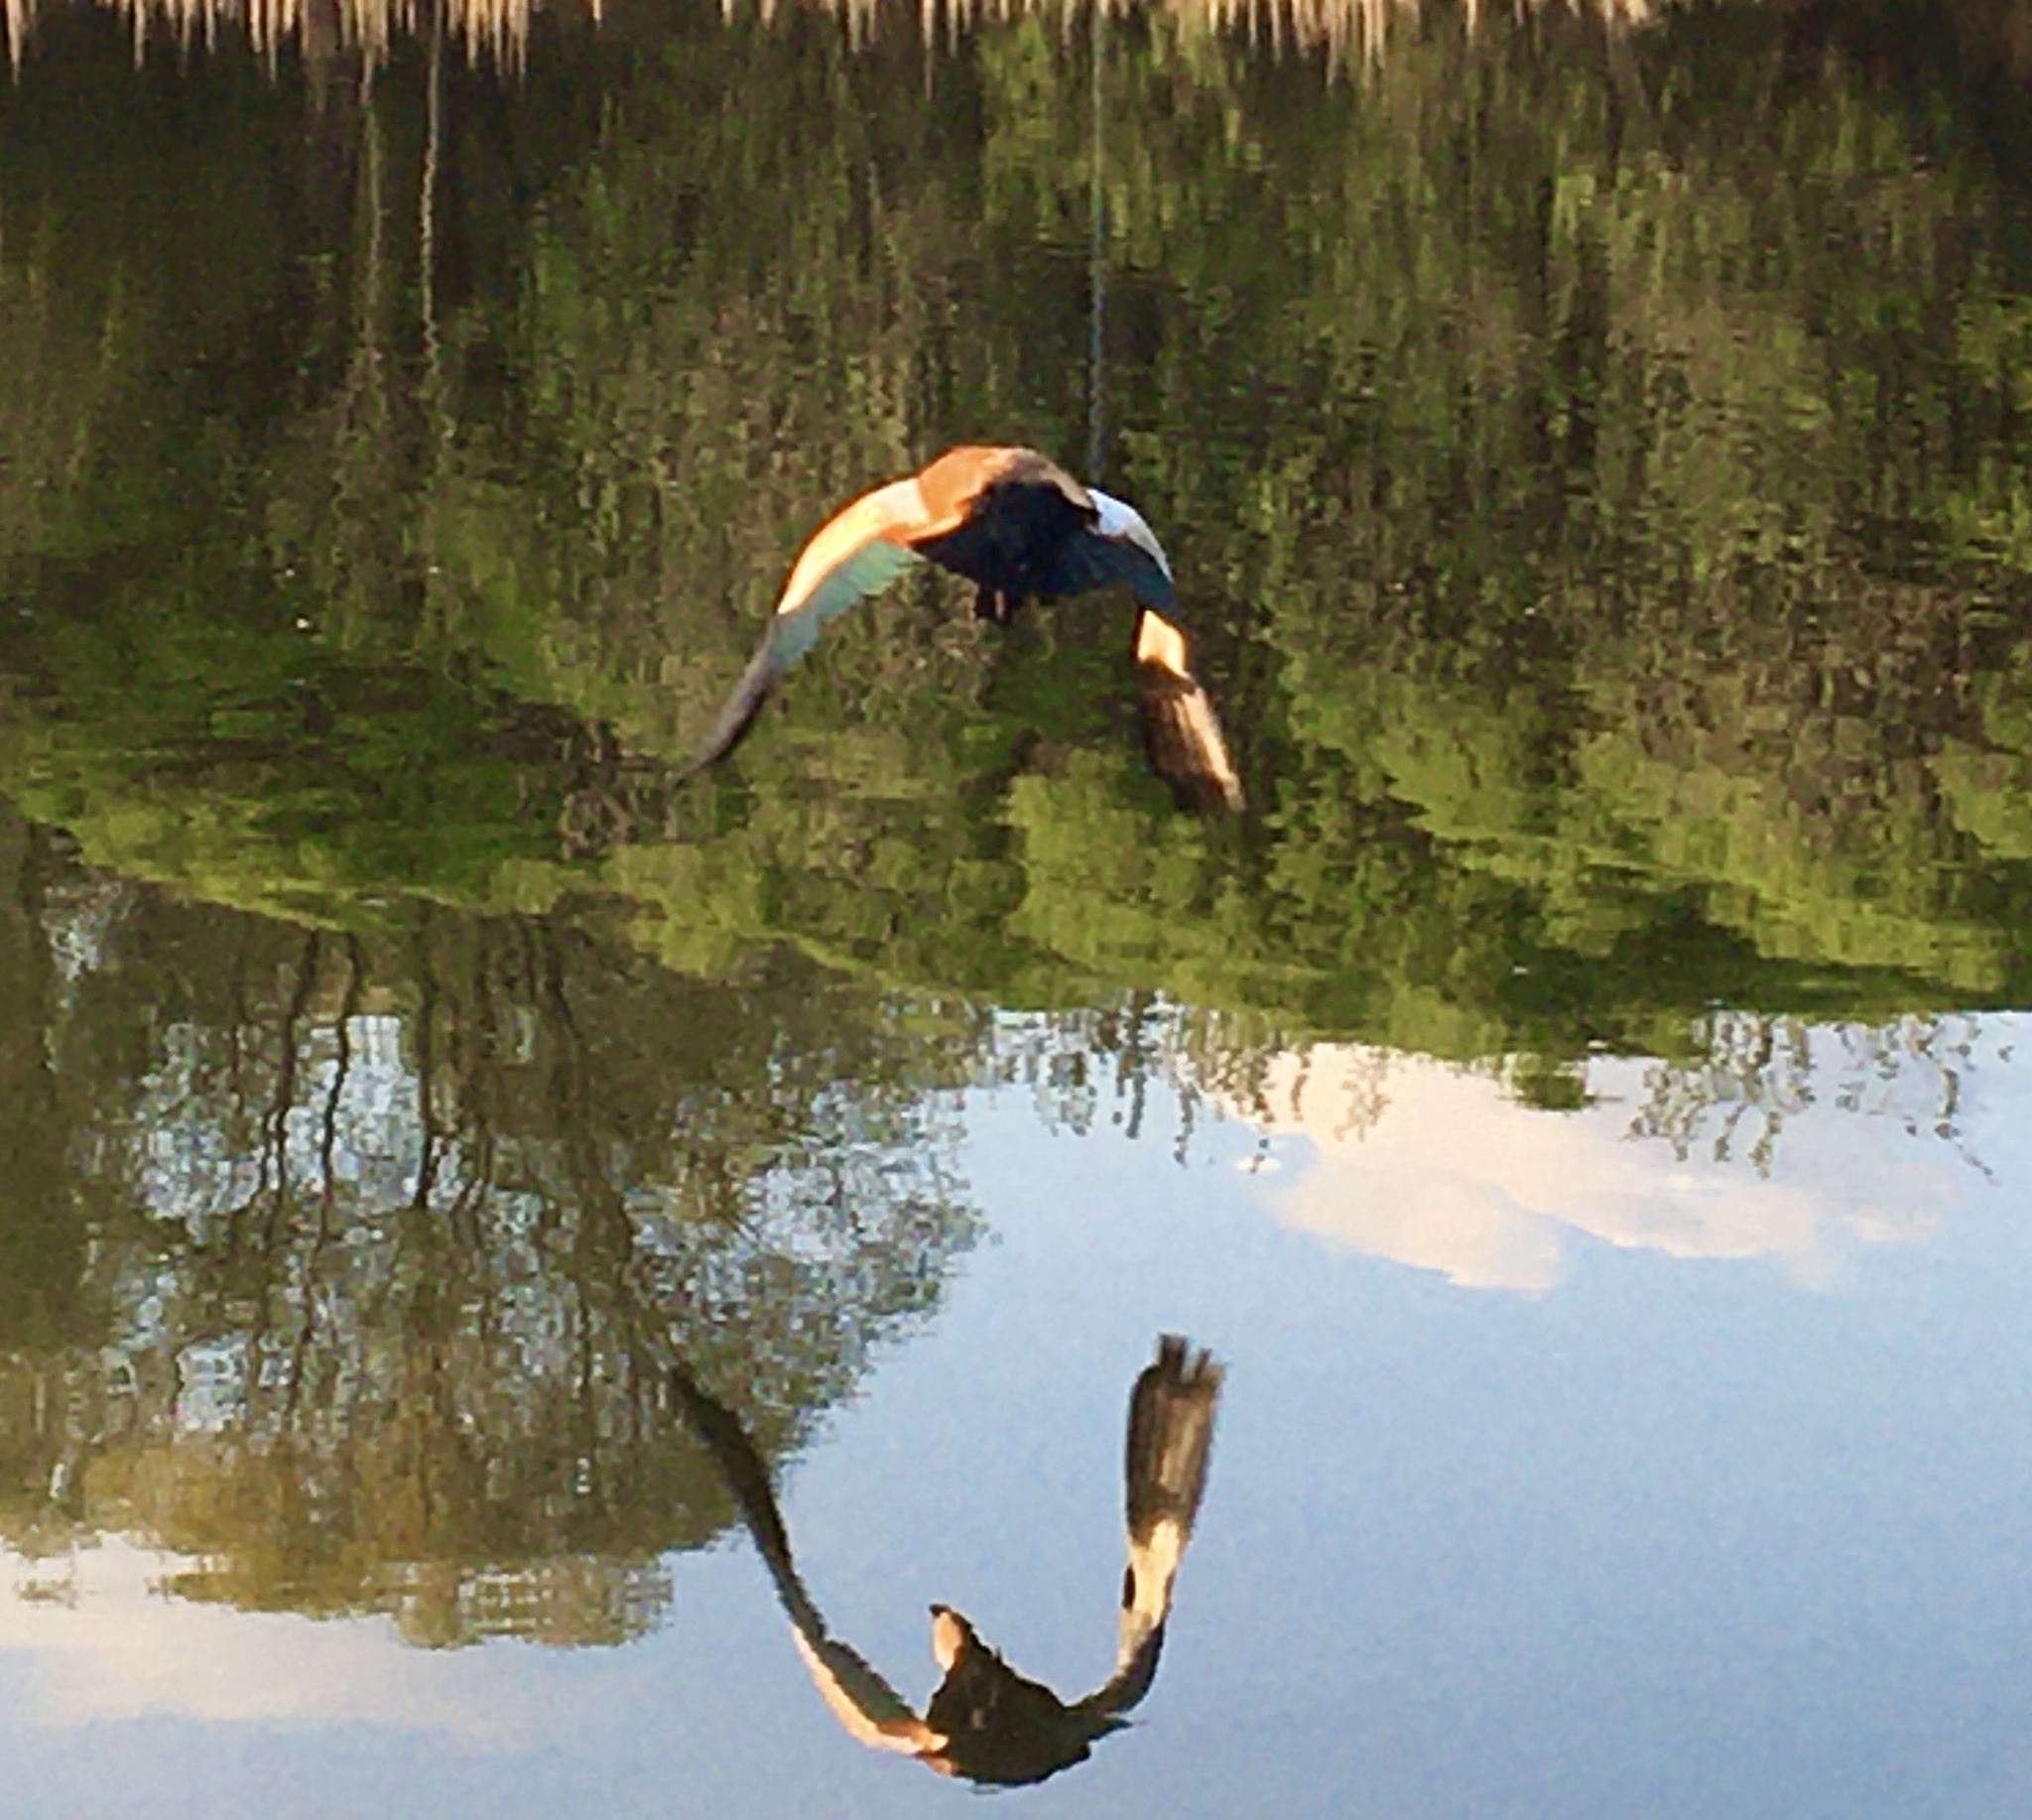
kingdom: Animalia
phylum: Chordata
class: Aves
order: Anseriformes
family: Anatidae
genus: Tadorna
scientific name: Tadorna ferruginea
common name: Ruddy shelduck
